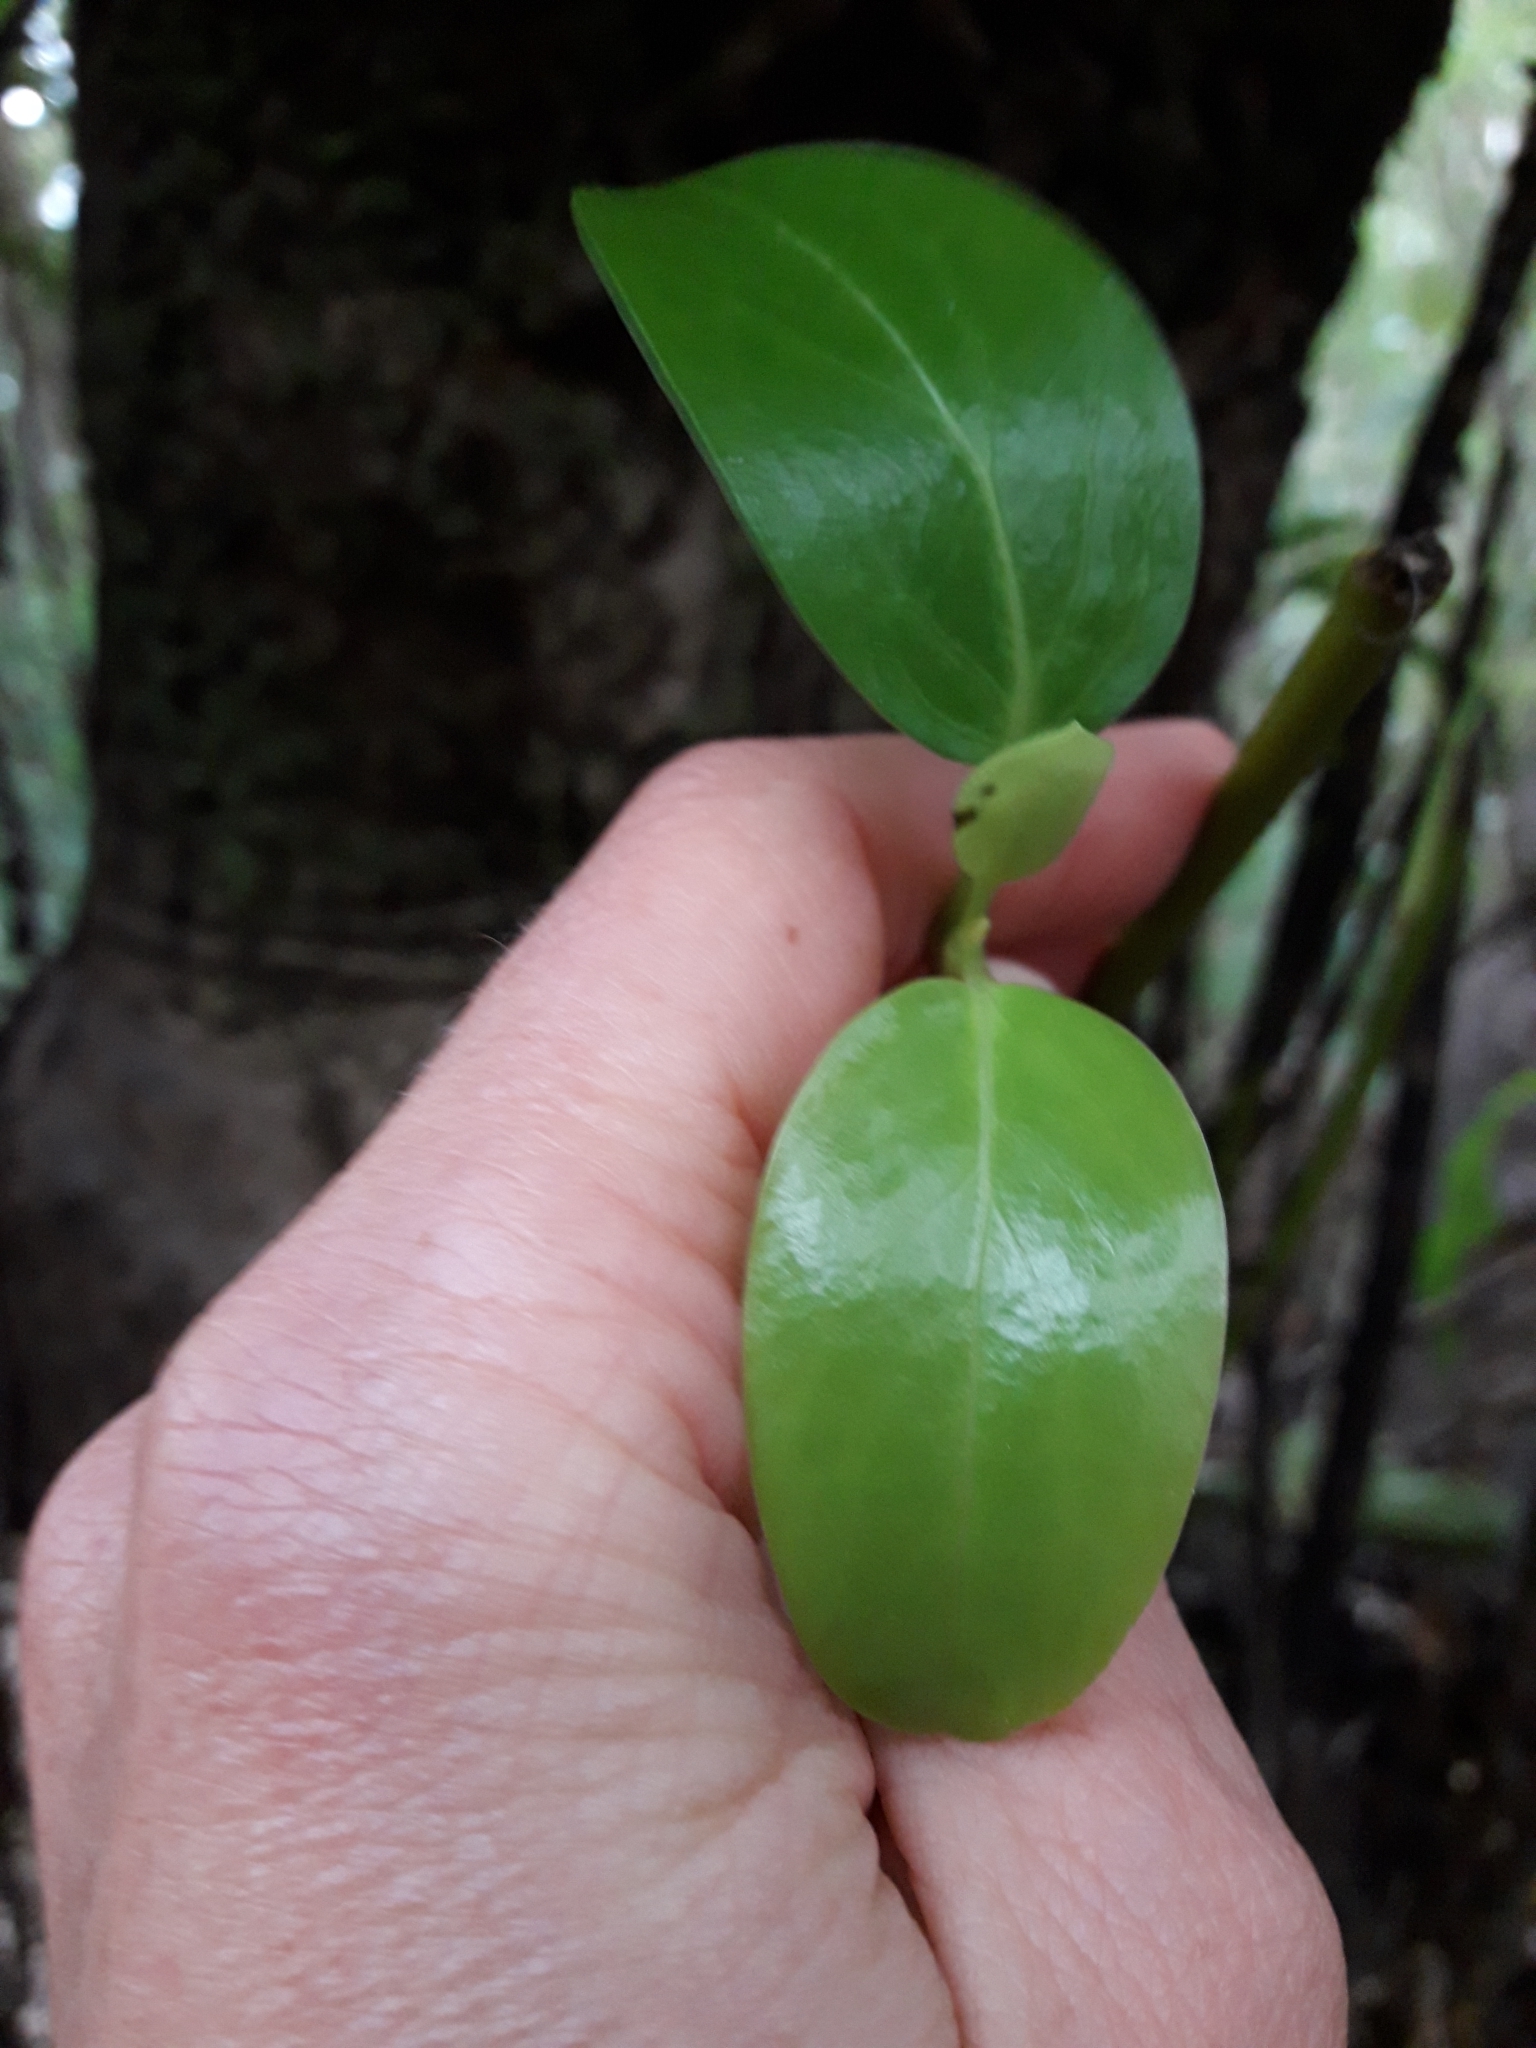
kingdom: Plantae
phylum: Tracheophyta
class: Magnoliopsida
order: Apiales
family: Griseliniaceae
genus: Griselinia
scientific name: Griselinia littoralis
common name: New zealand broadleaf
